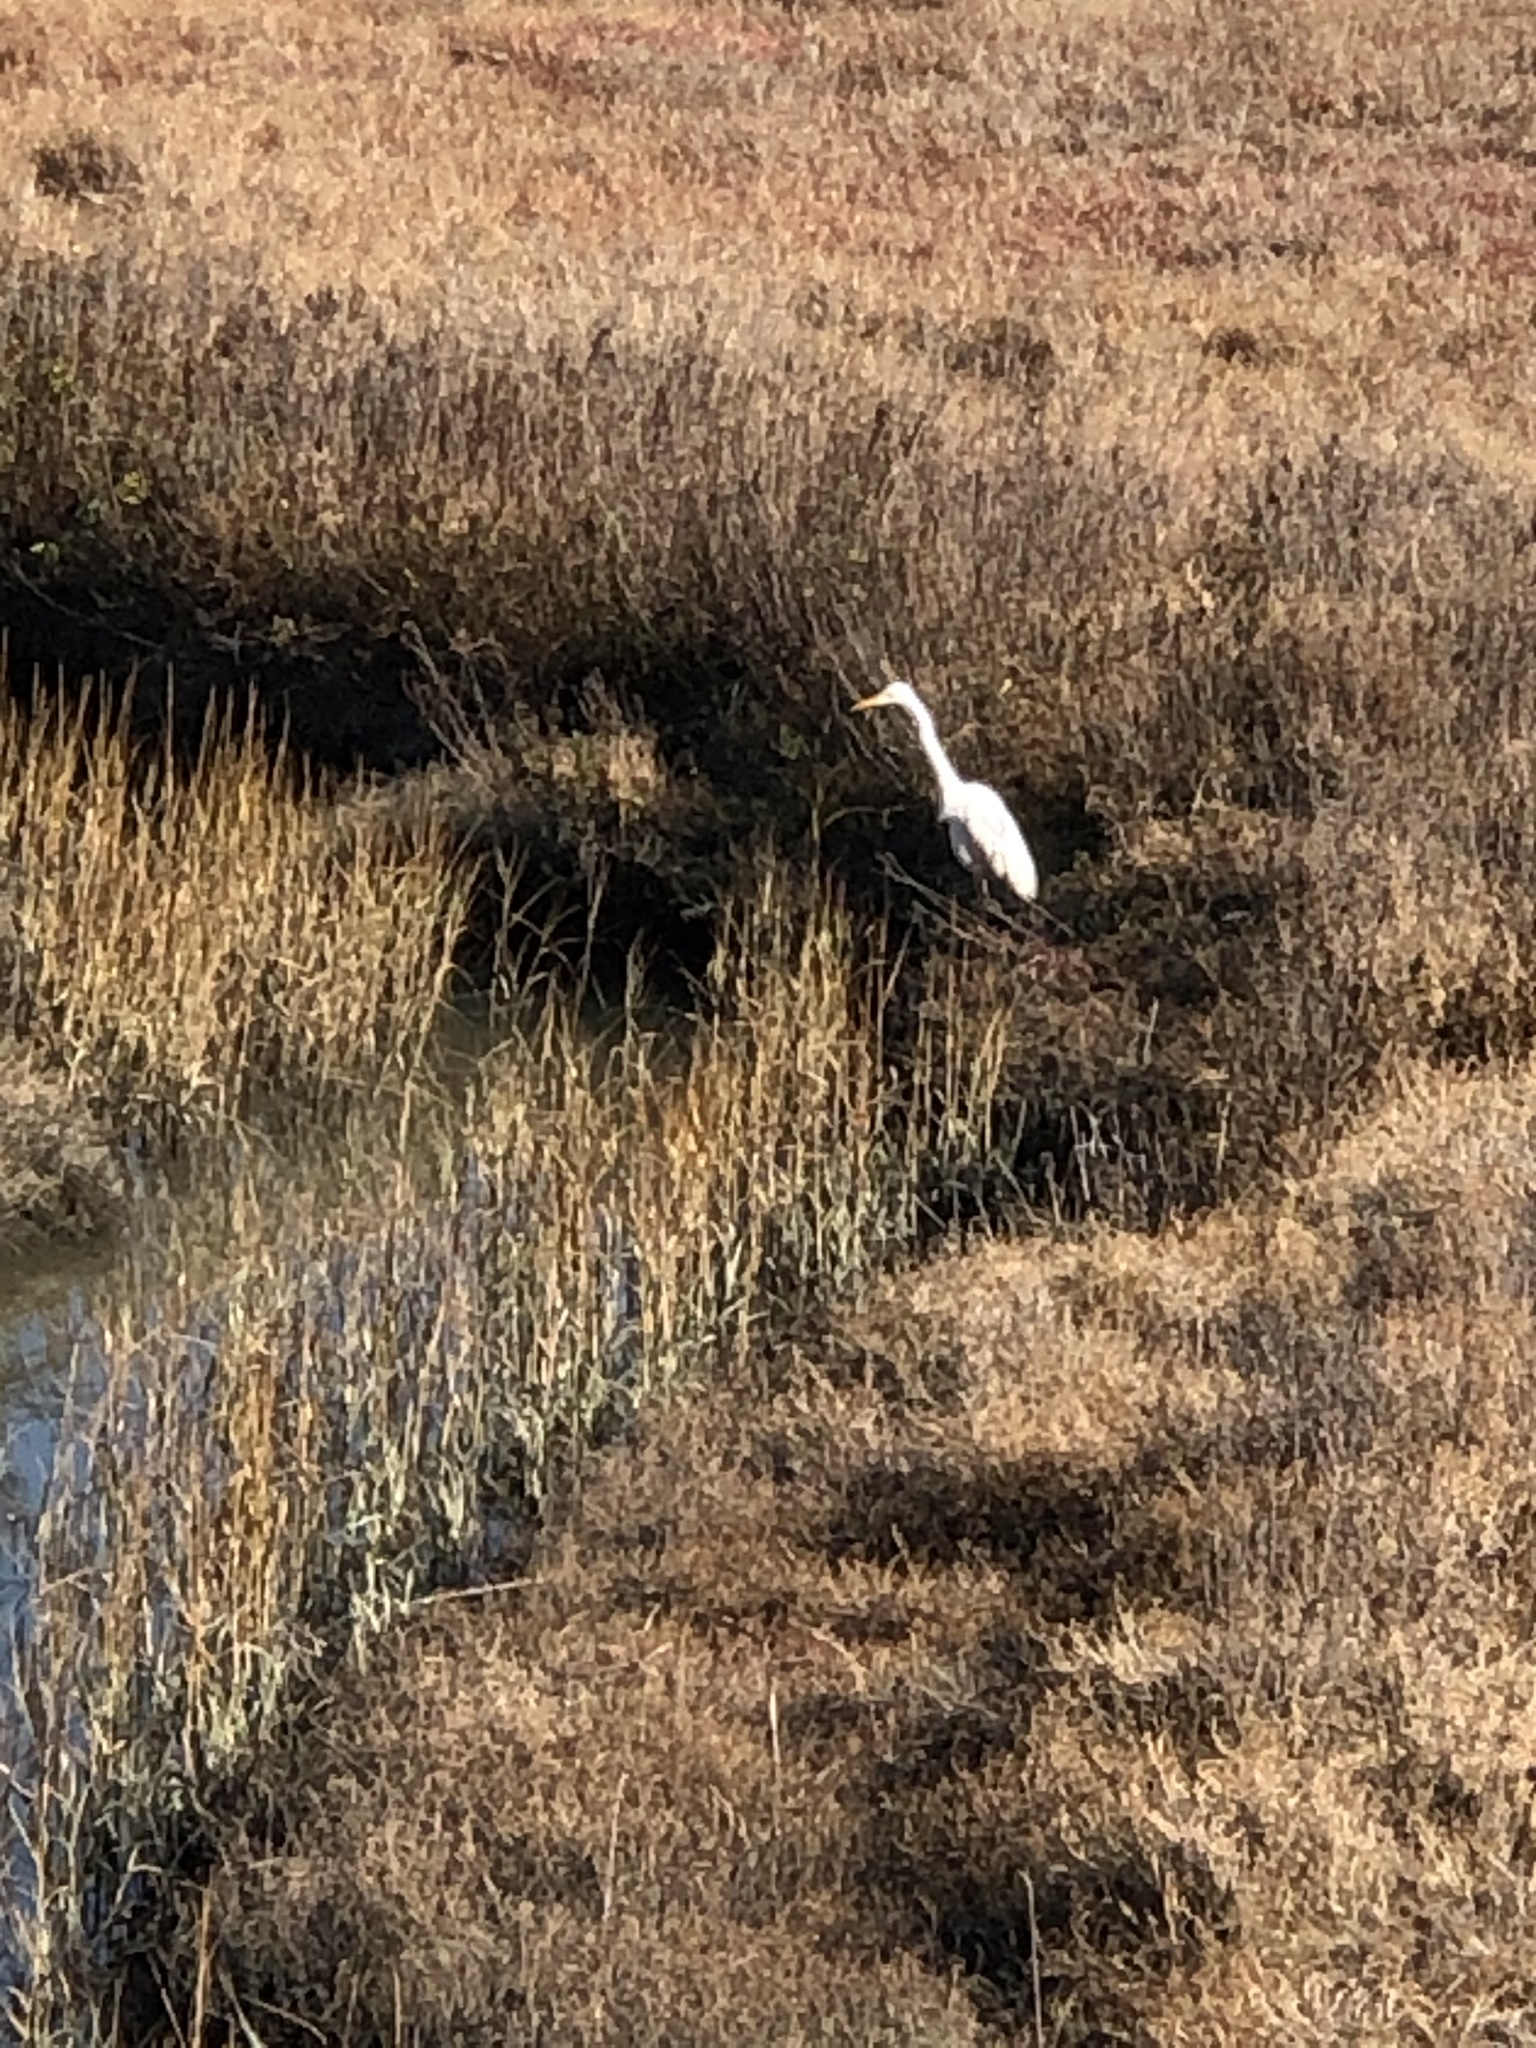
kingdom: Animalia
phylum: Chordata
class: Aves
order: Pelecaniformes
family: Ardeidae
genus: Ardea
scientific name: Ardea alba
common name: Great egret
